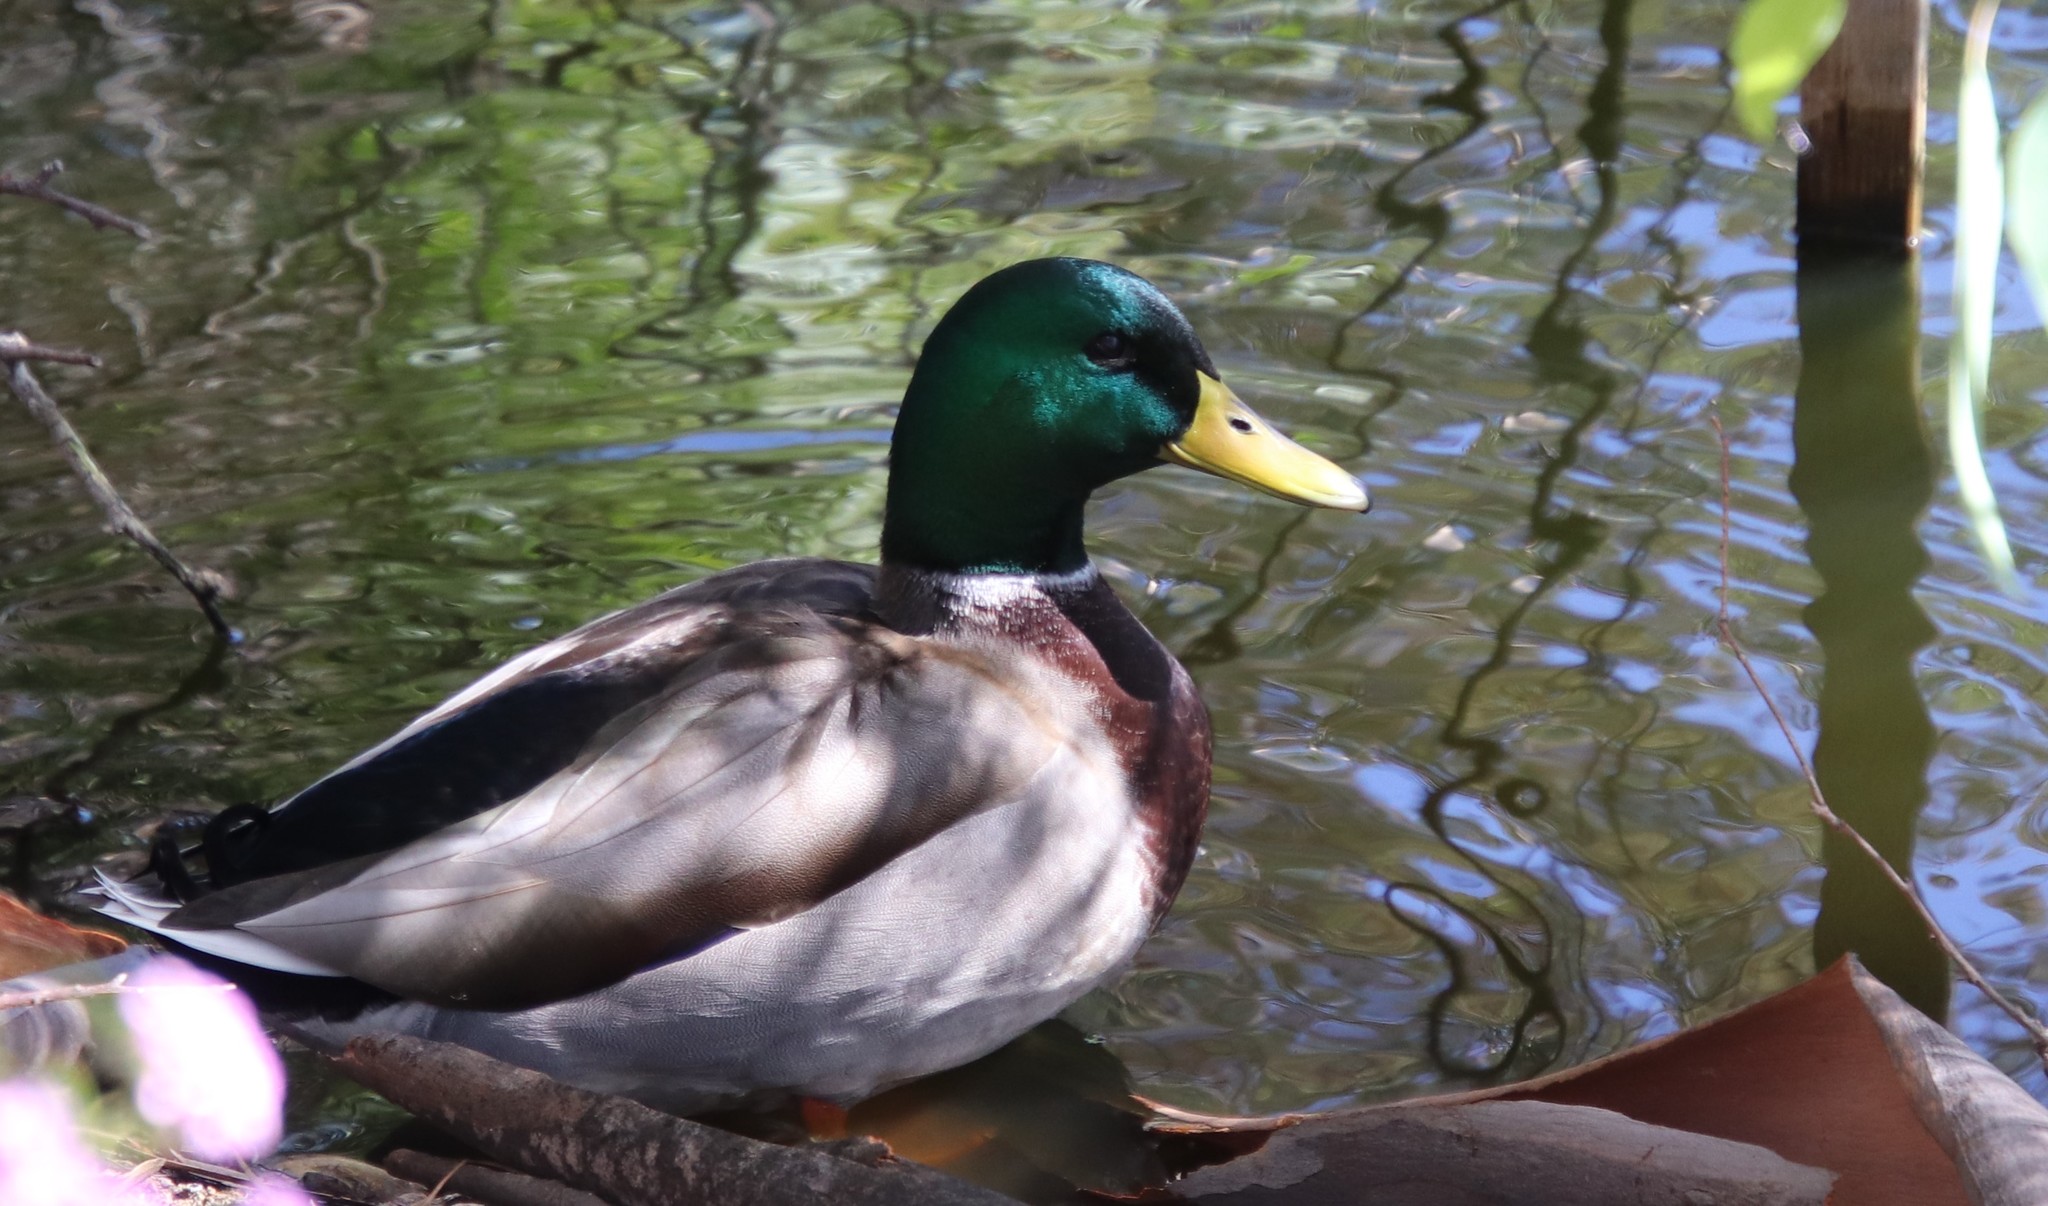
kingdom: Animalia
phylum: Chordata
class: Aves
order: Anseriformes
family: Anatidae
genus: Anas
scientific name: Anas platyrhynchos
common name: Mallard
